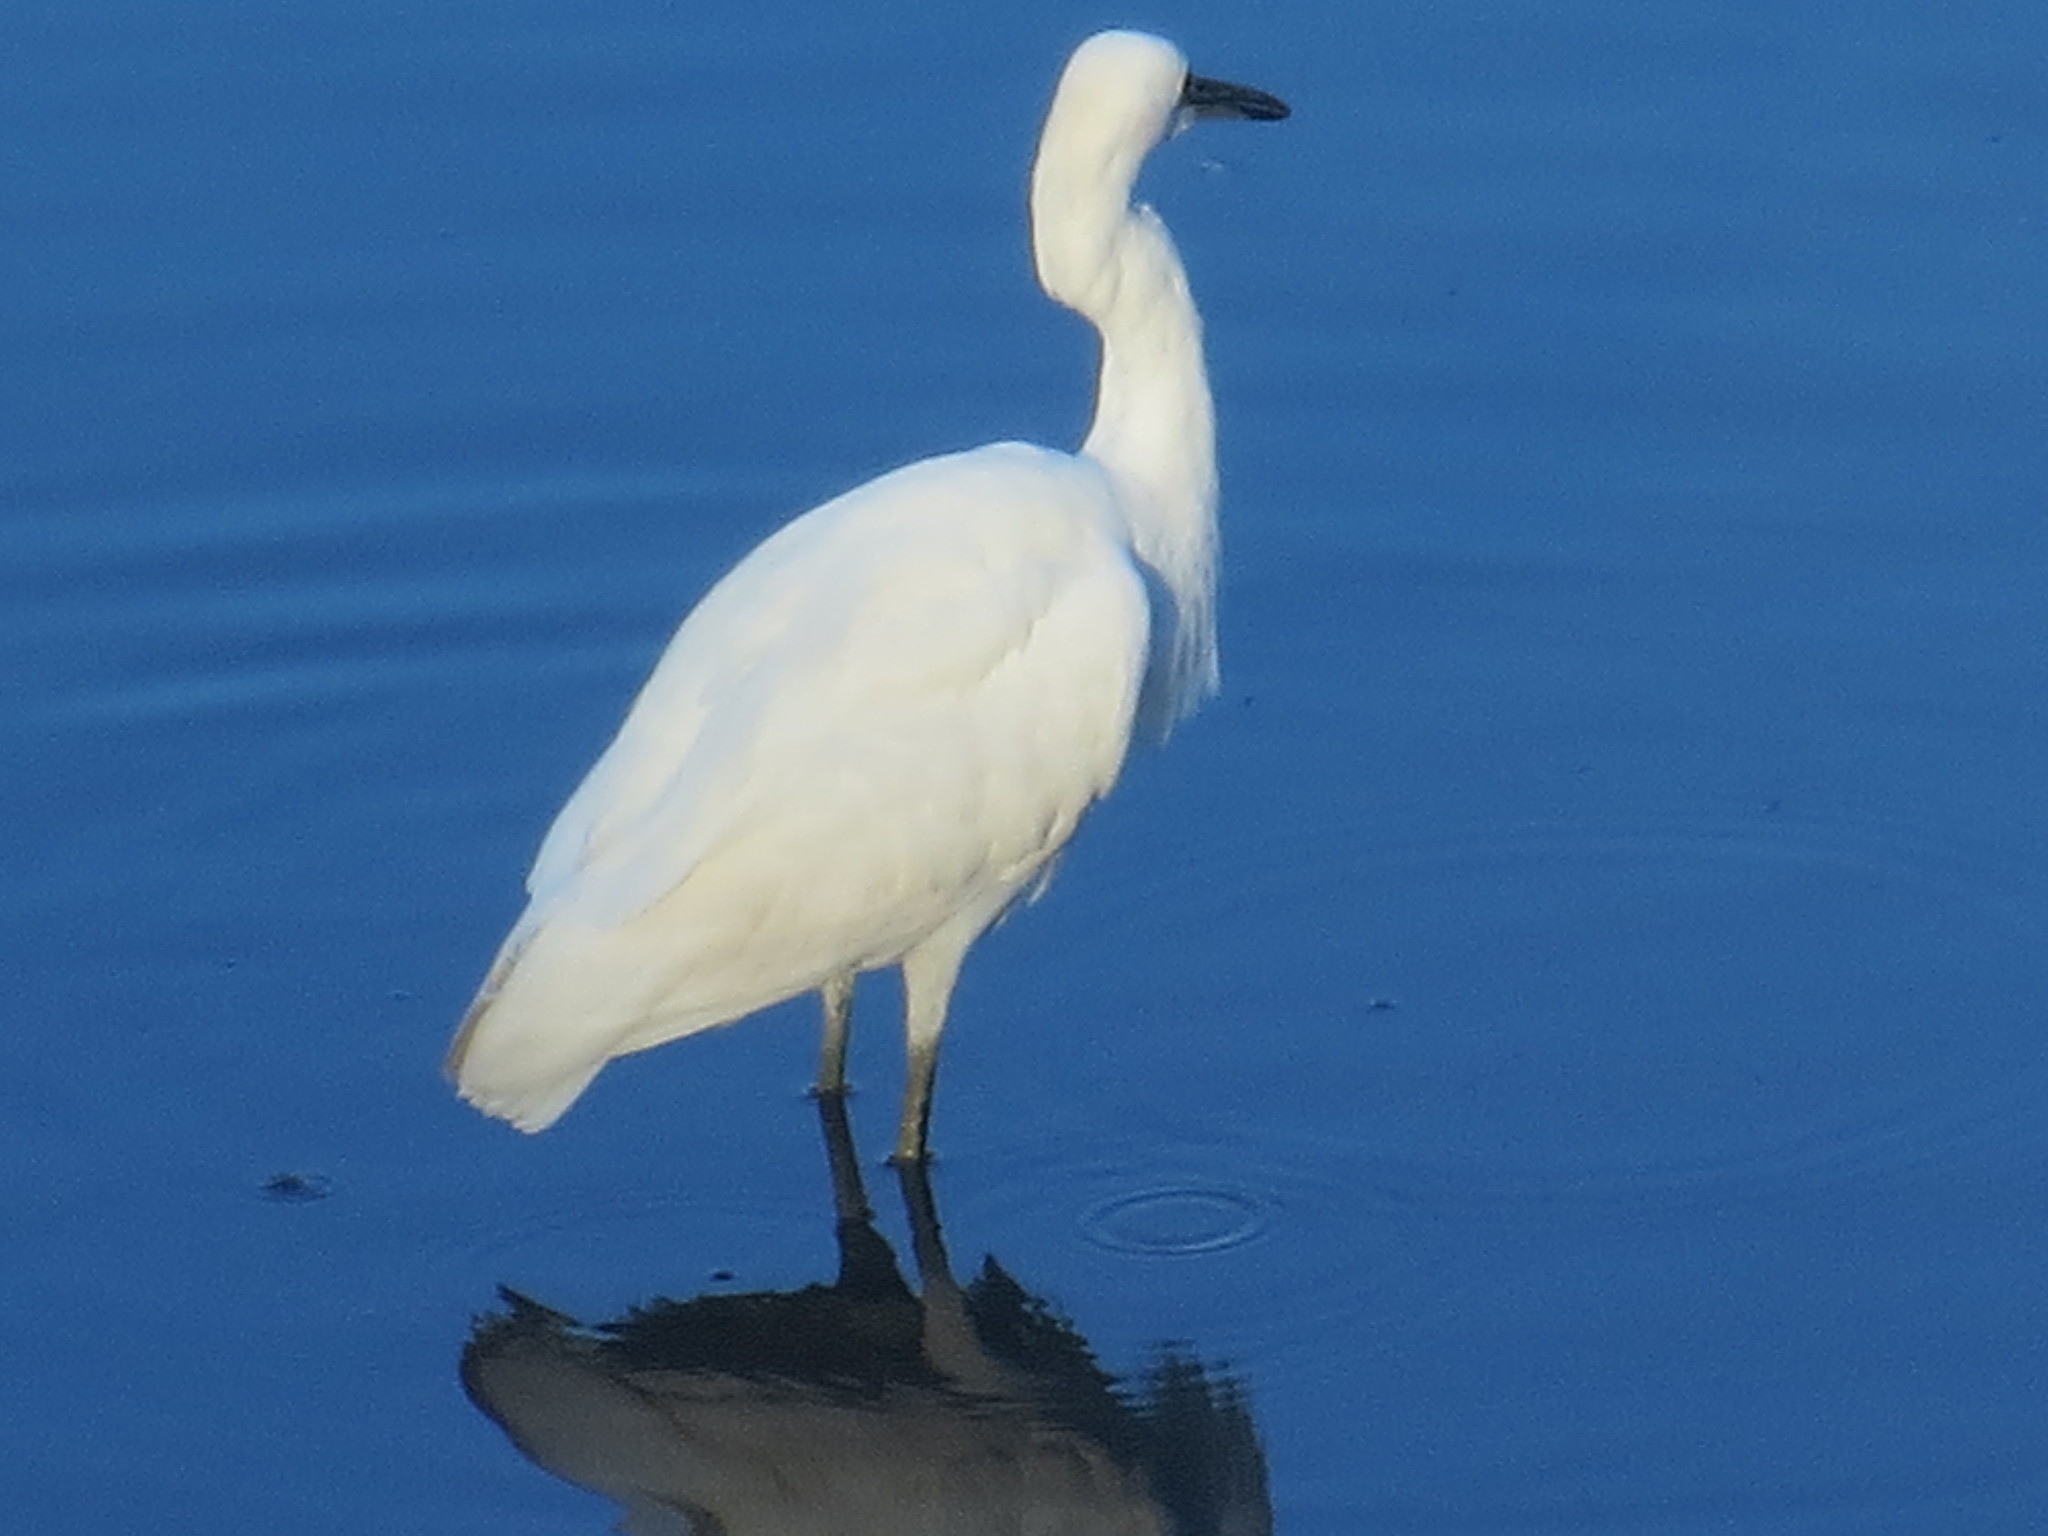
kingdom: Animalia
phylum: Chordata
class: Aves
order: Pelecaniformes
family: Ardeidae
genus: Egretta
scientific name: Egretta thula
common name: Snowy egret
